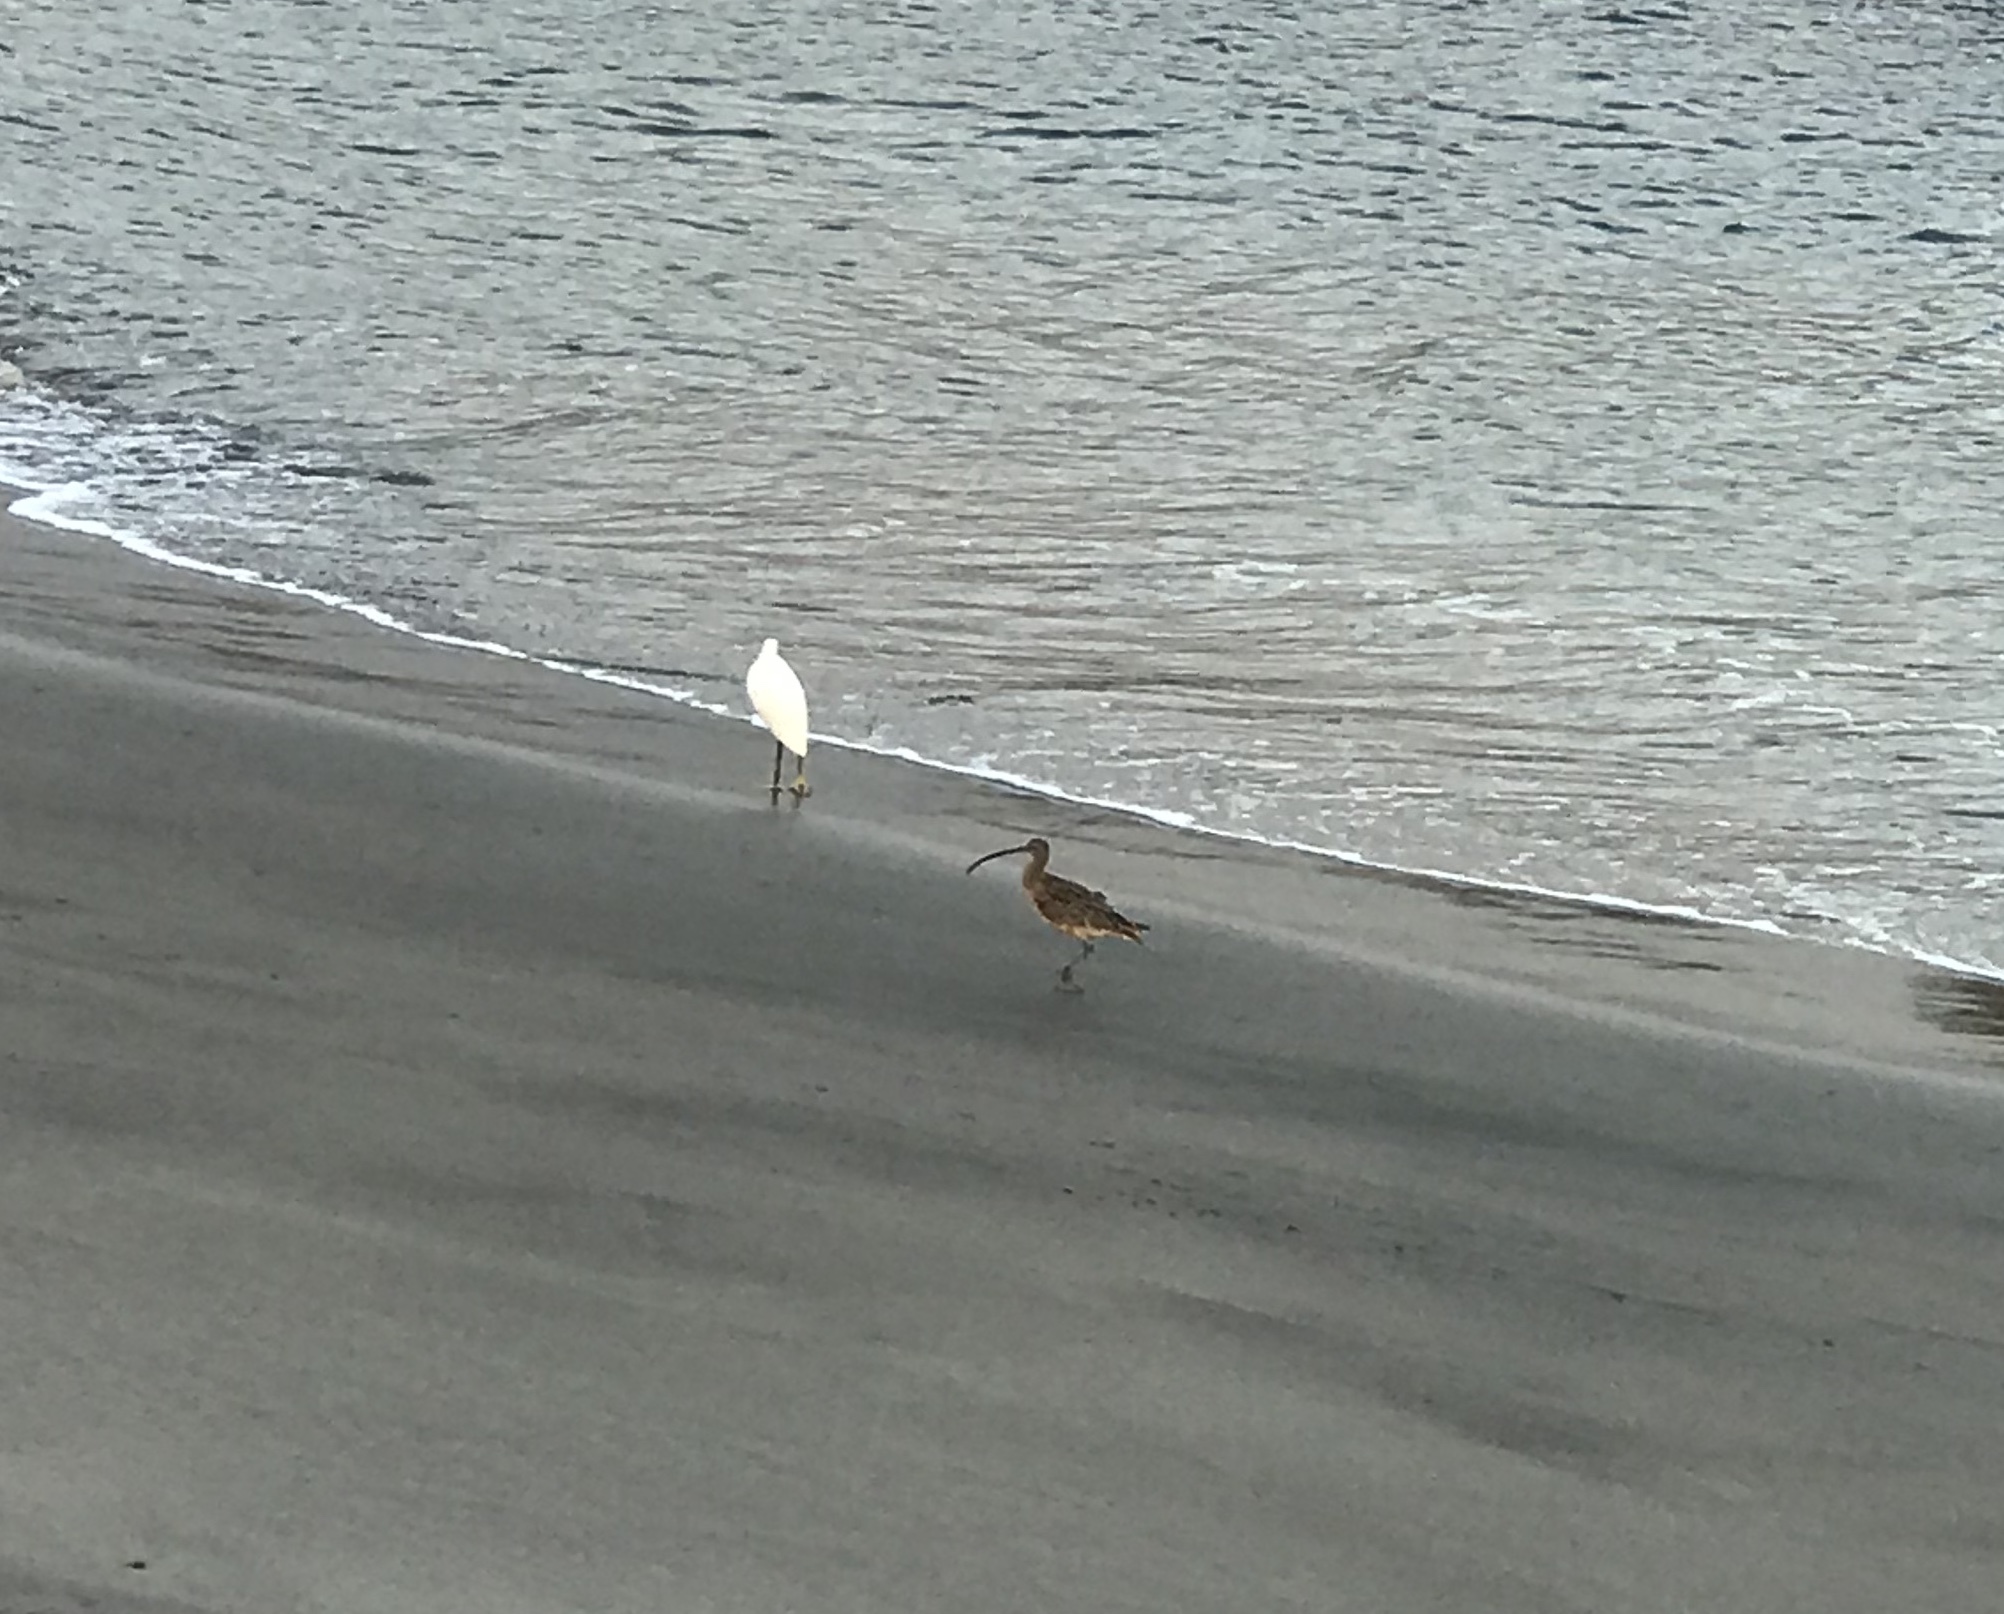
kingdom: Animalia
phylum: Chordata
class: Aves
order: Charadriiformes
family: Scolopacidae
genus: Numenius
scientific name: Numenius americanus
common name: Long-billed curlew
